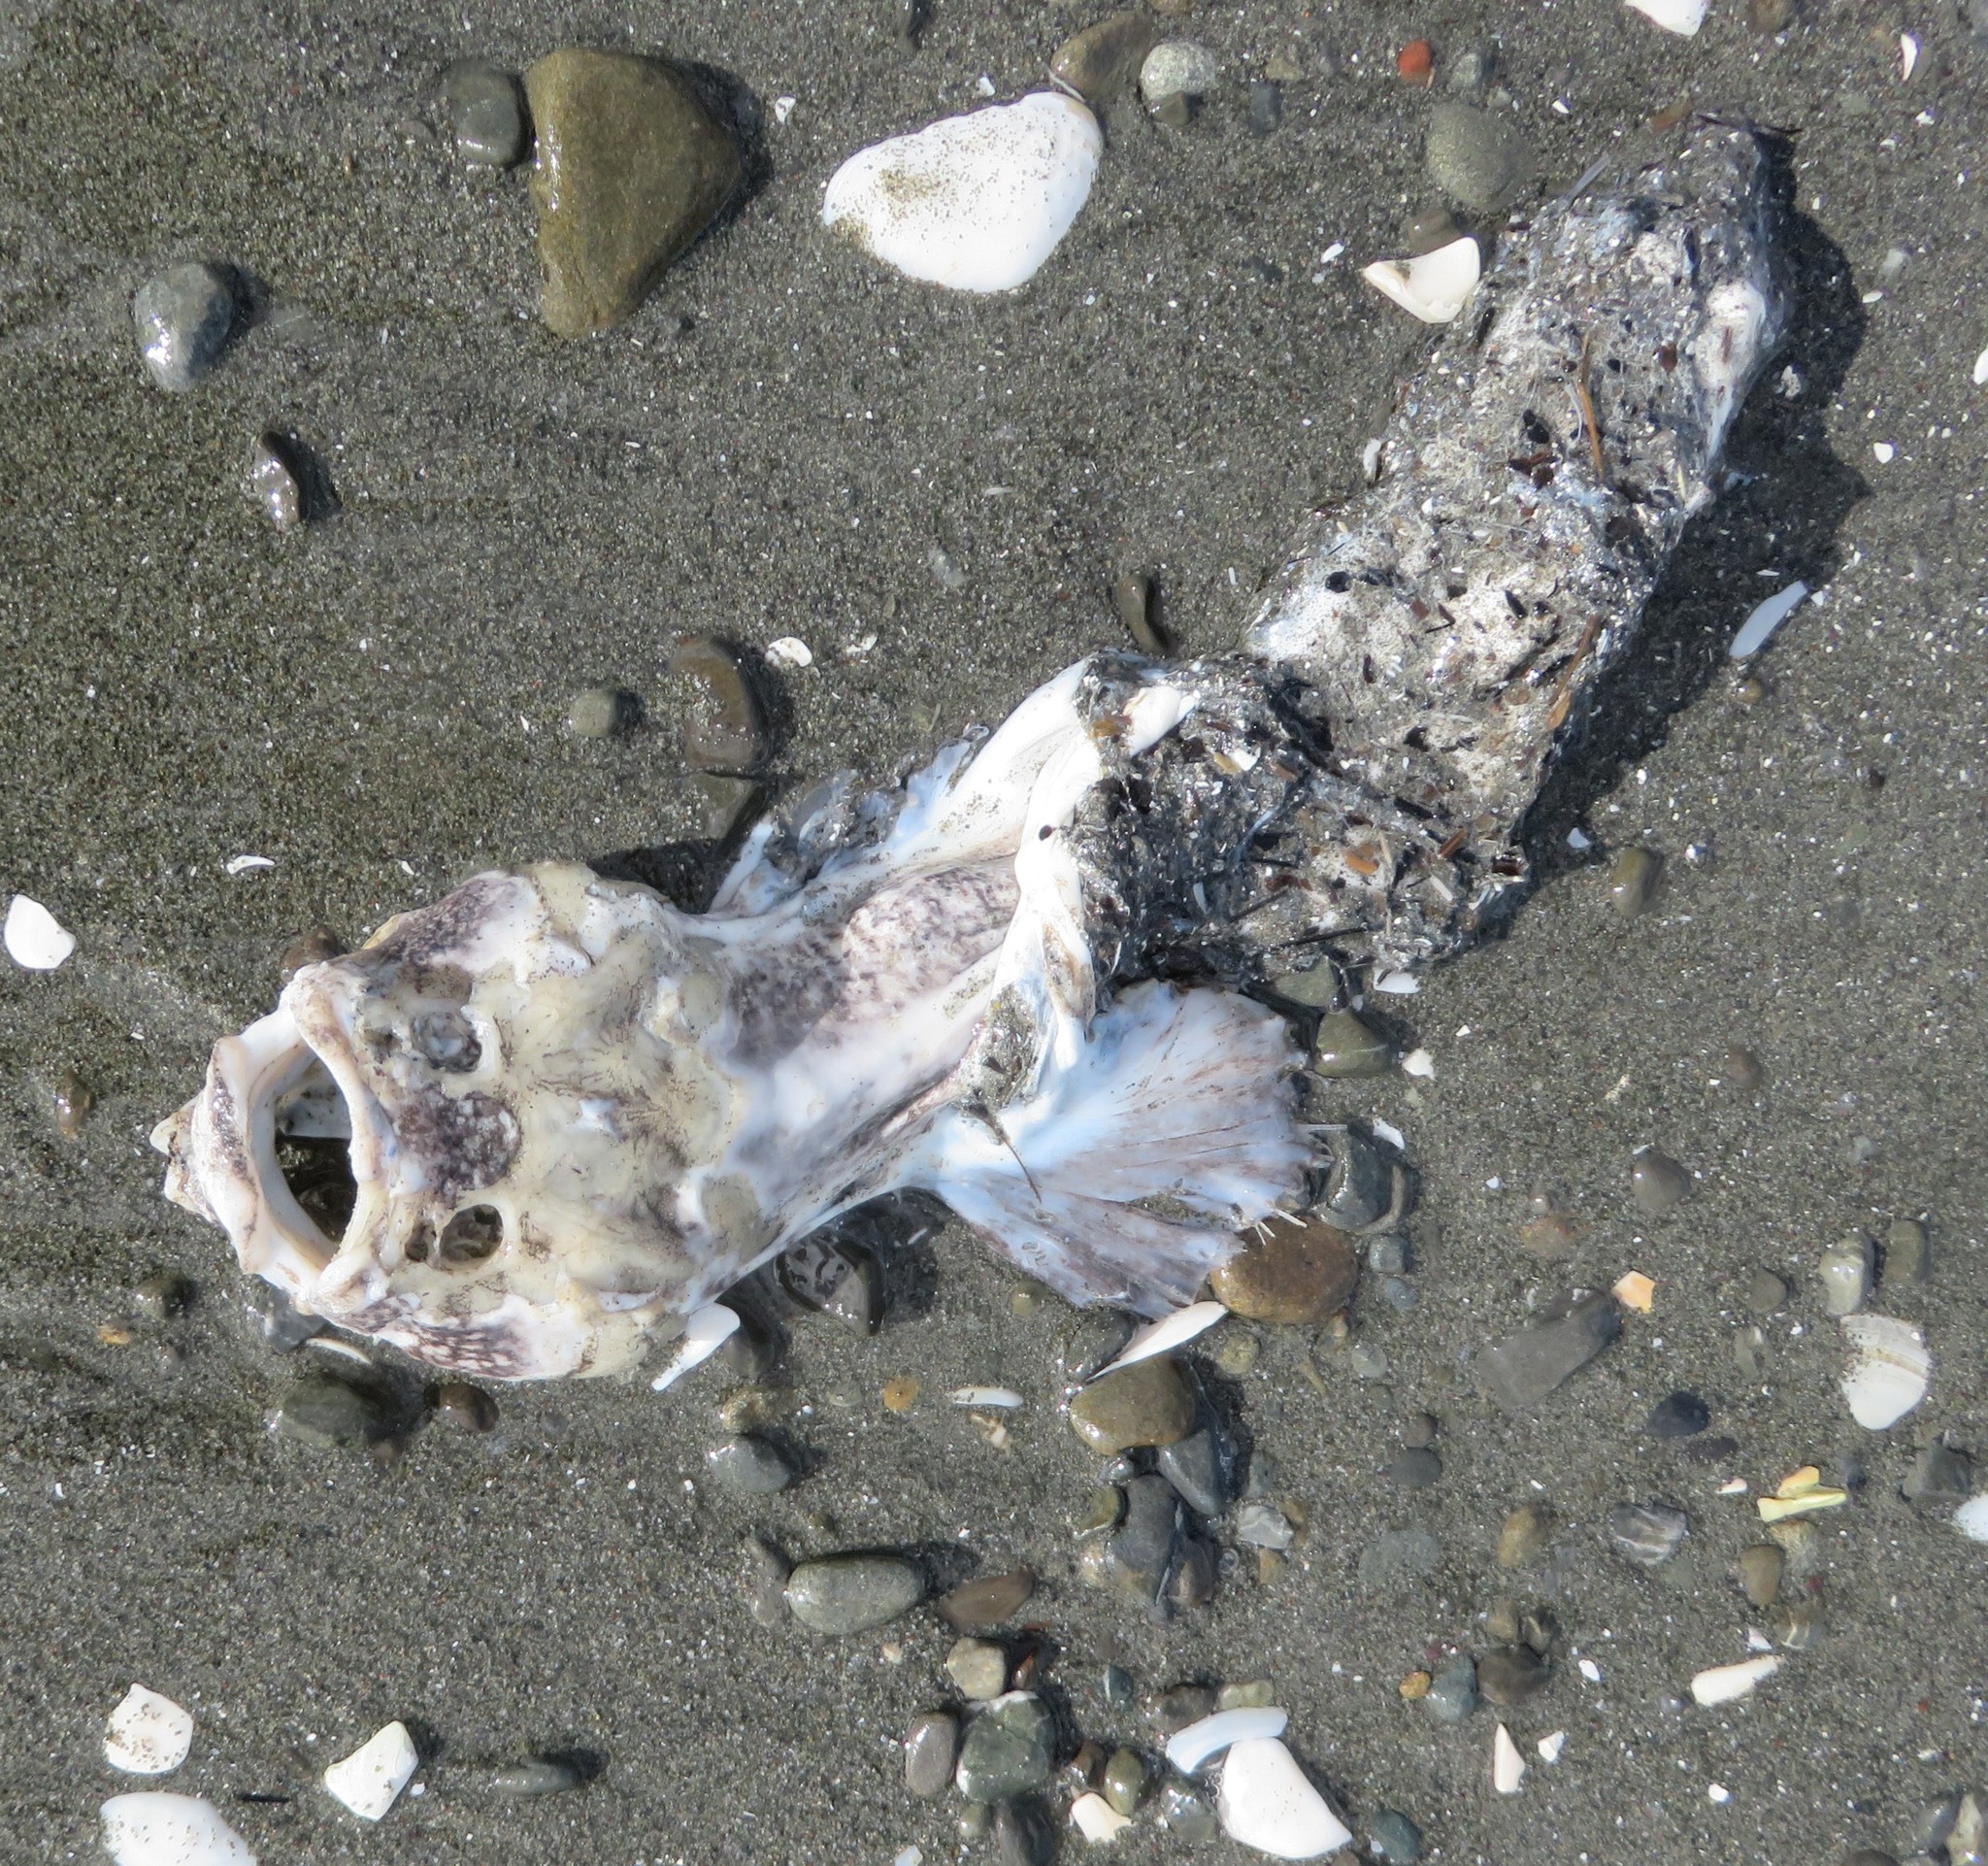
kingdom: Animalia
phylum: Chordata
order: Perciformes
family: Uranoscopidae
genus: Genyagnus
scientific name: Genyagnus monopterygius
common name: Spotted stargazer
